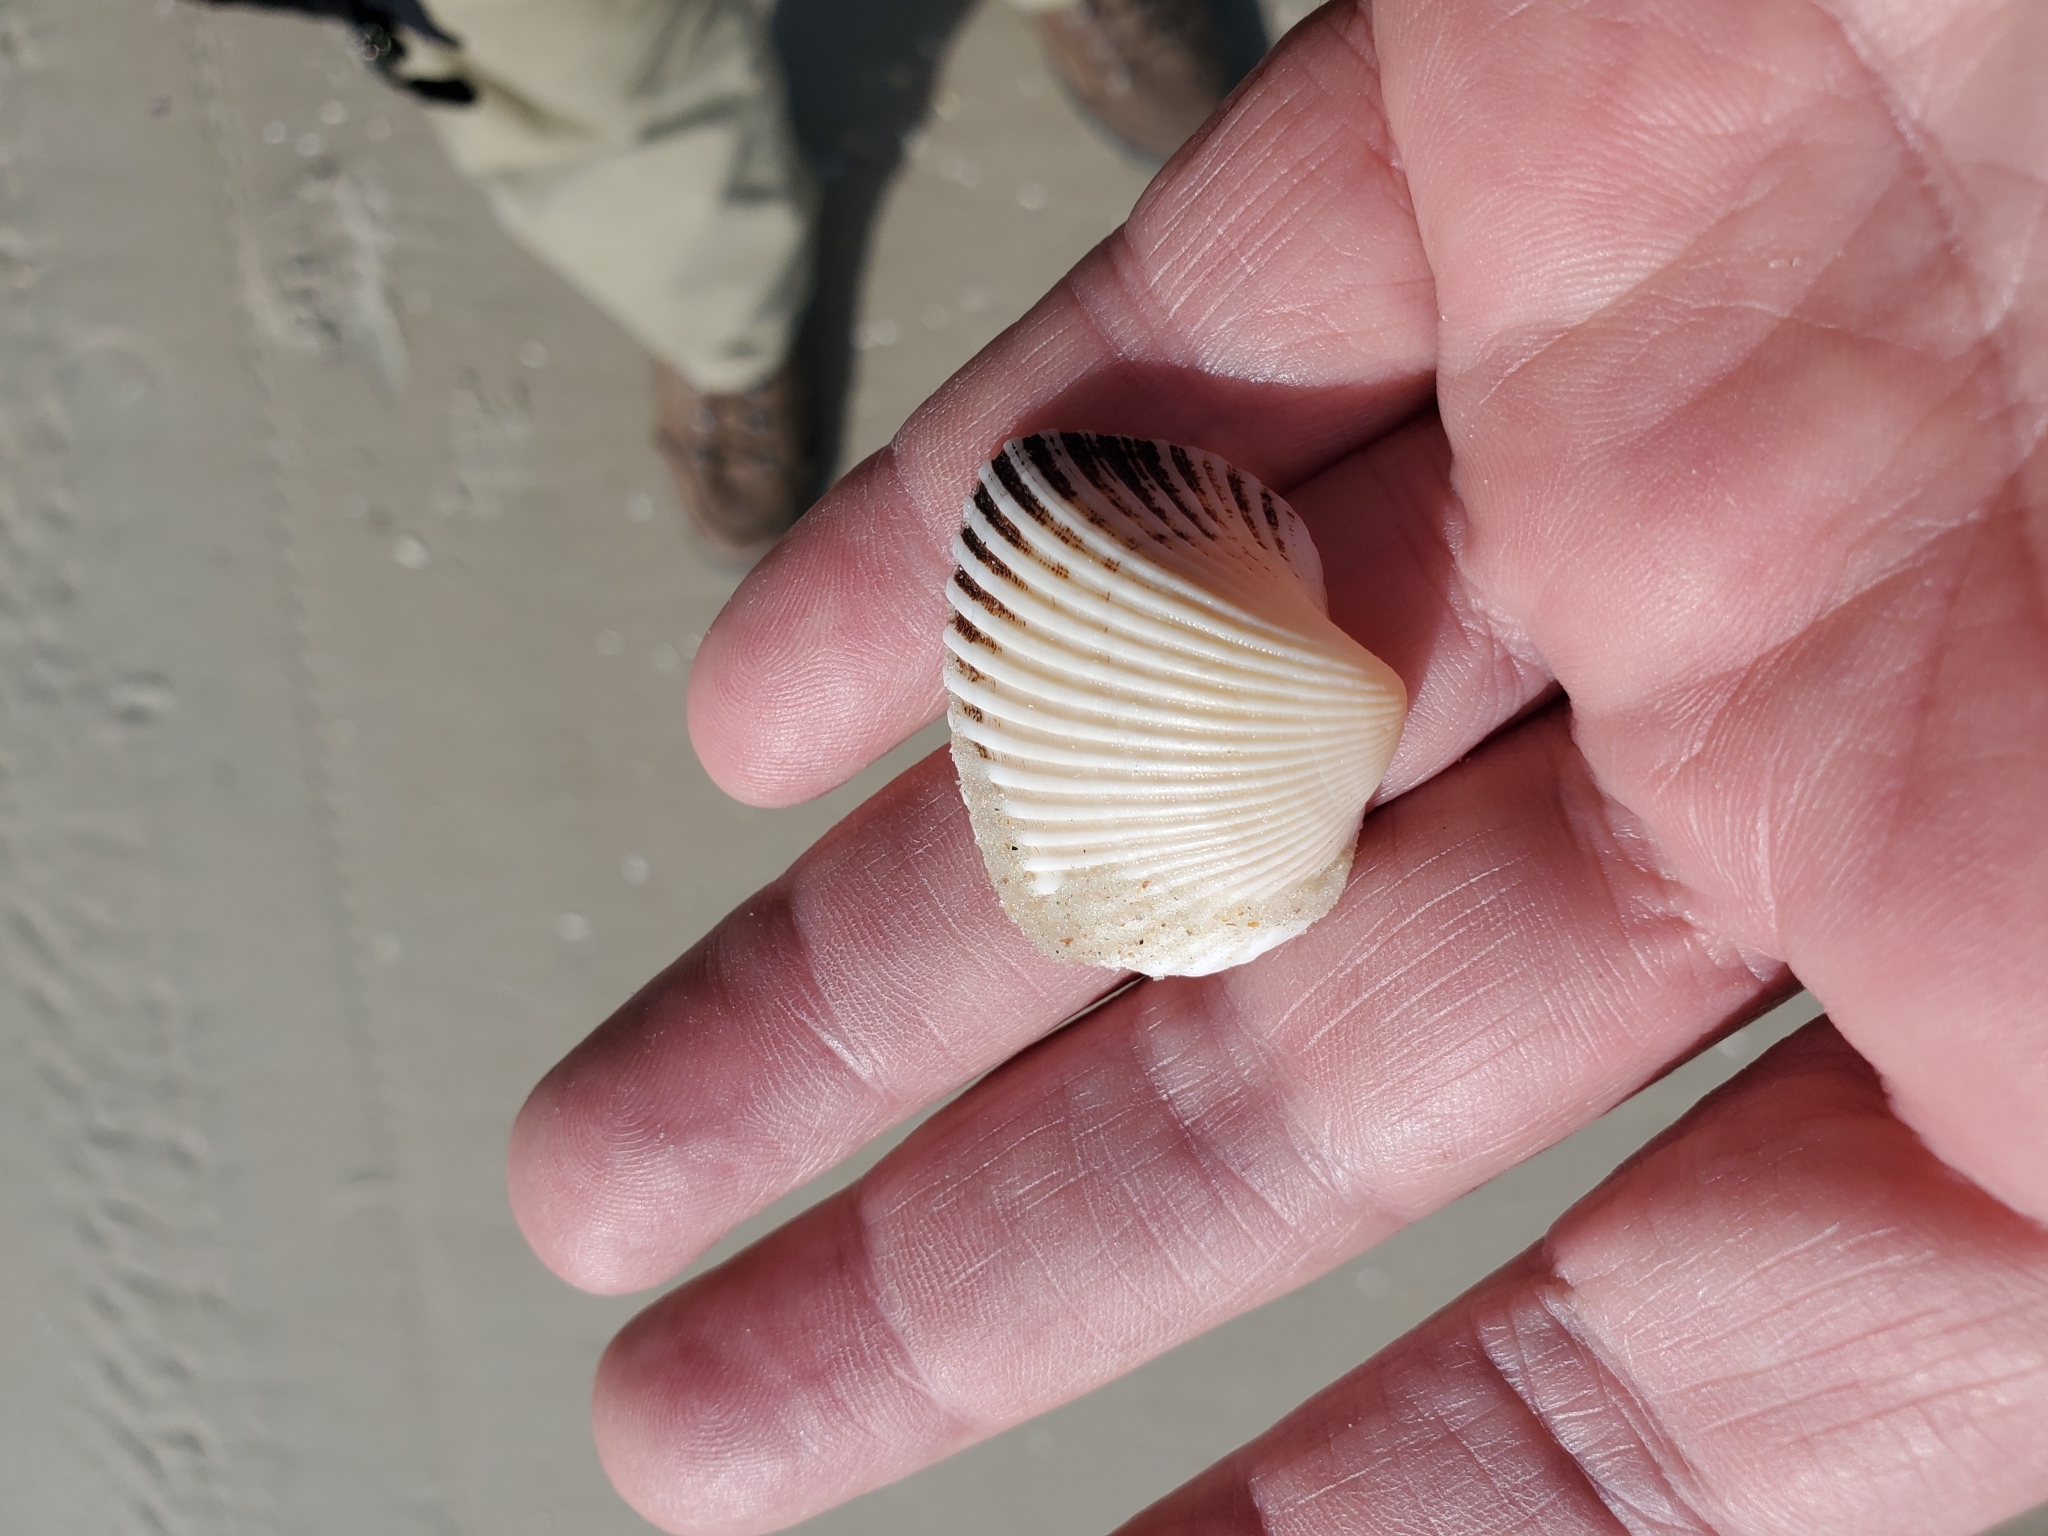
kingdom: Animalia
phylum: Mollusca
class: Bivalvia
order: Arcida
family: Noetiidae
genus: Noetia
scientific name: Noetia ponderosa
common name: Ponderous ark
